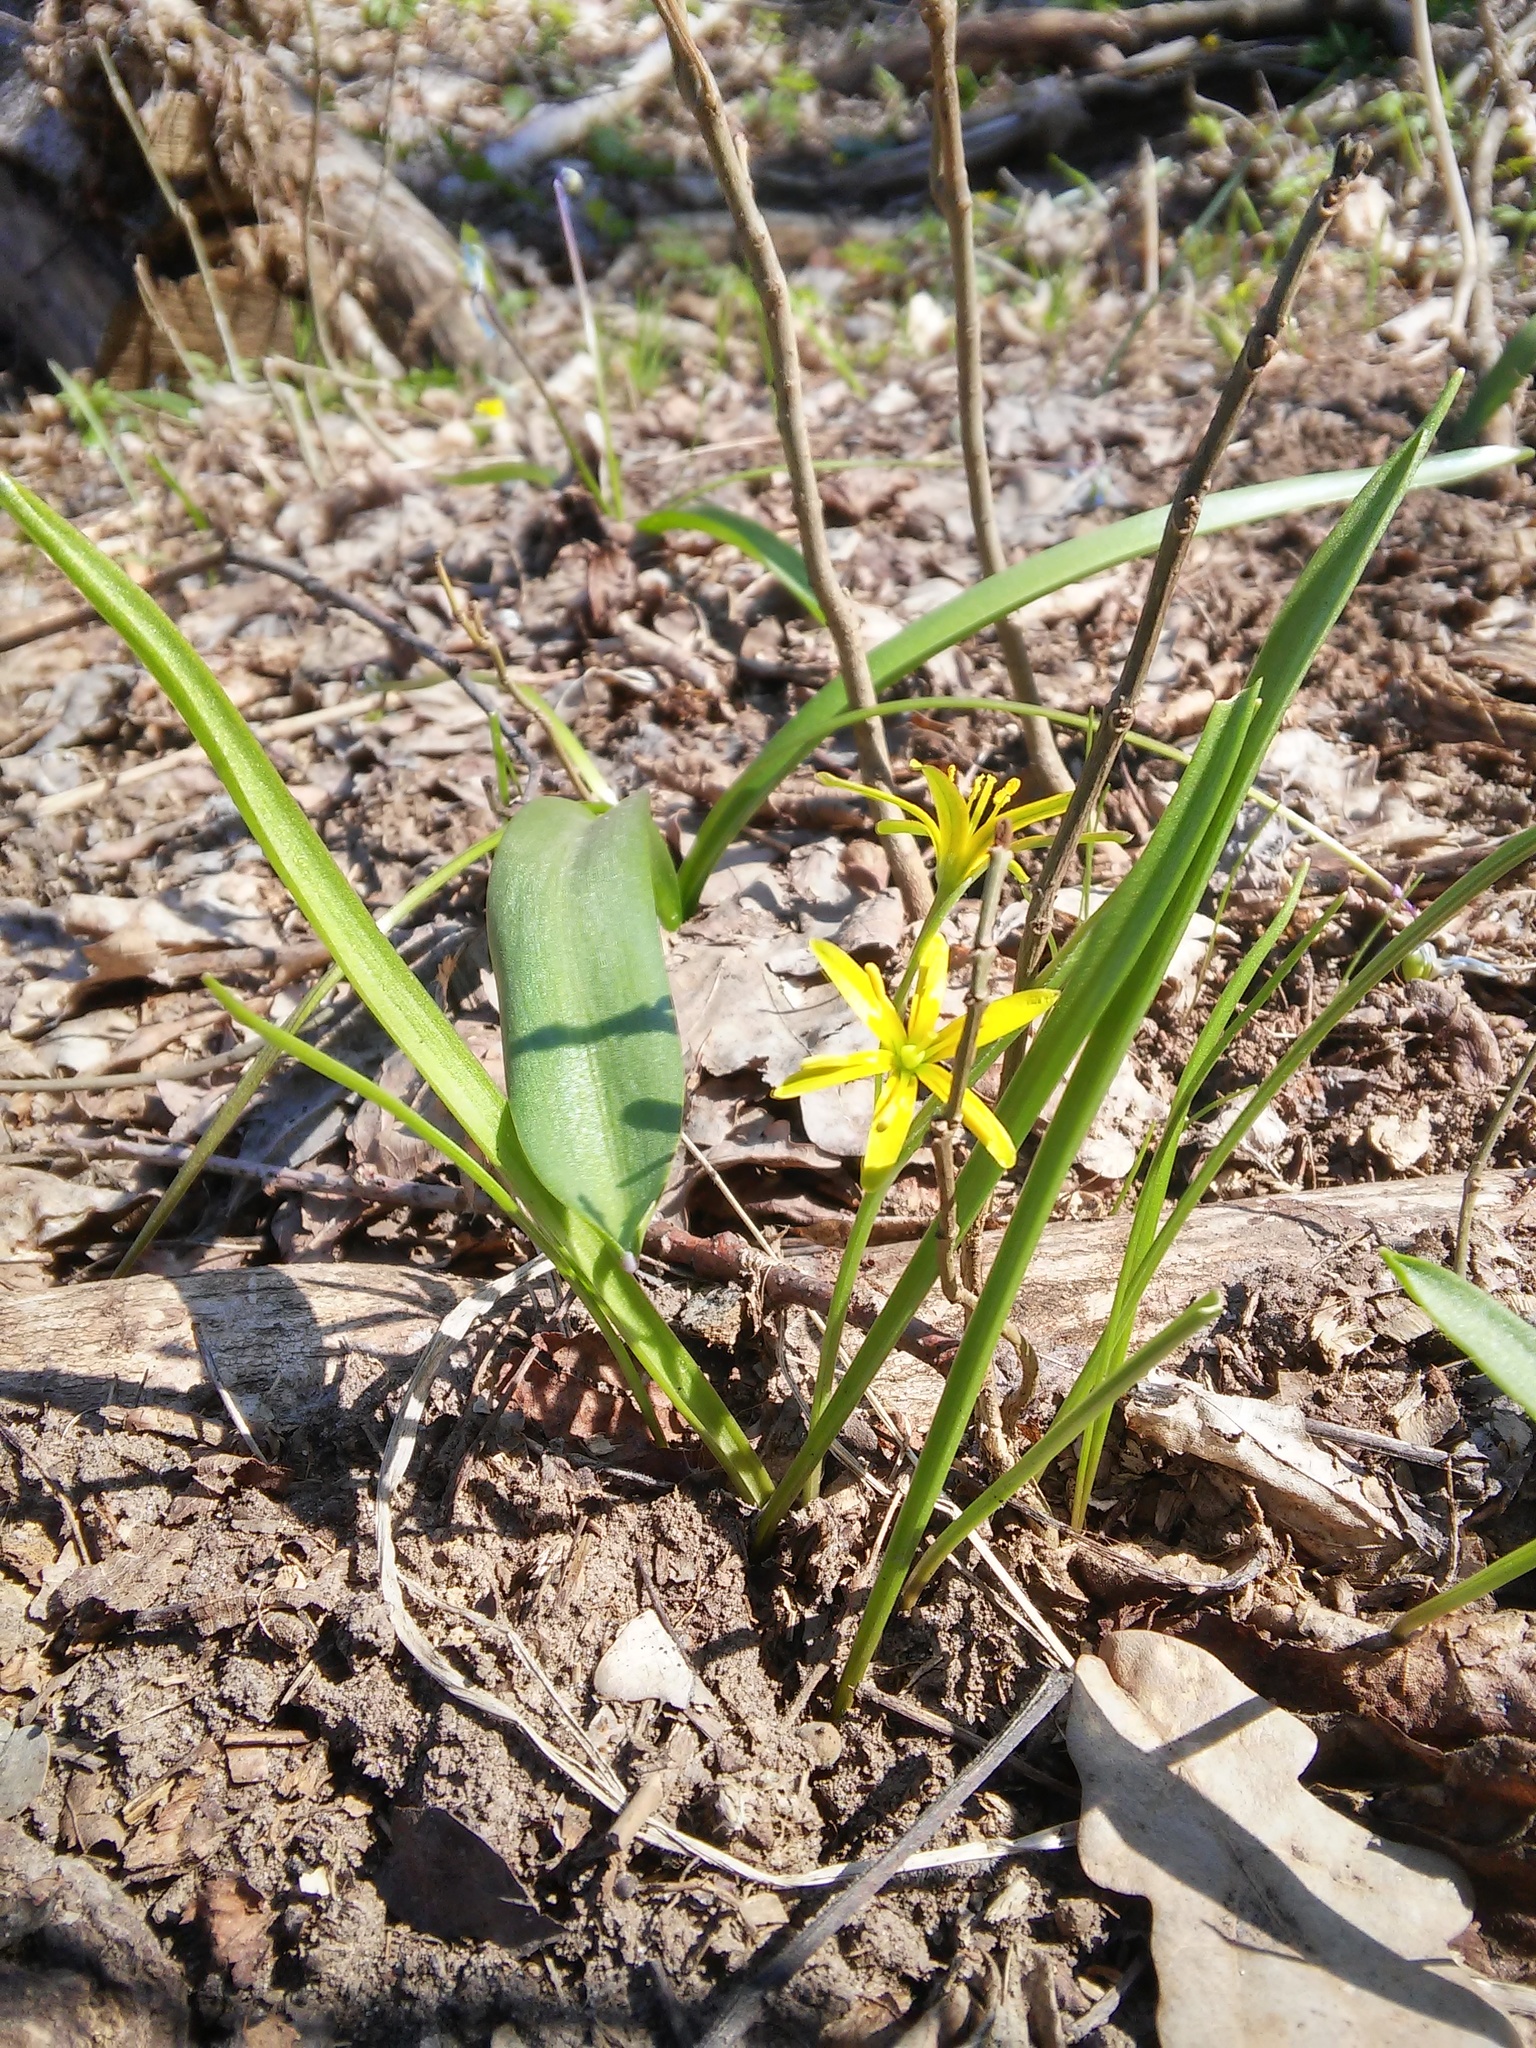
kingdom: Plantae
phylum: Tracheophyta
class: Liliopsida
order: Liliales
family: Liliaceae
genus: Gagea
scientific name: Gagea lutea
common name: Yellow star-of-bethlehem
